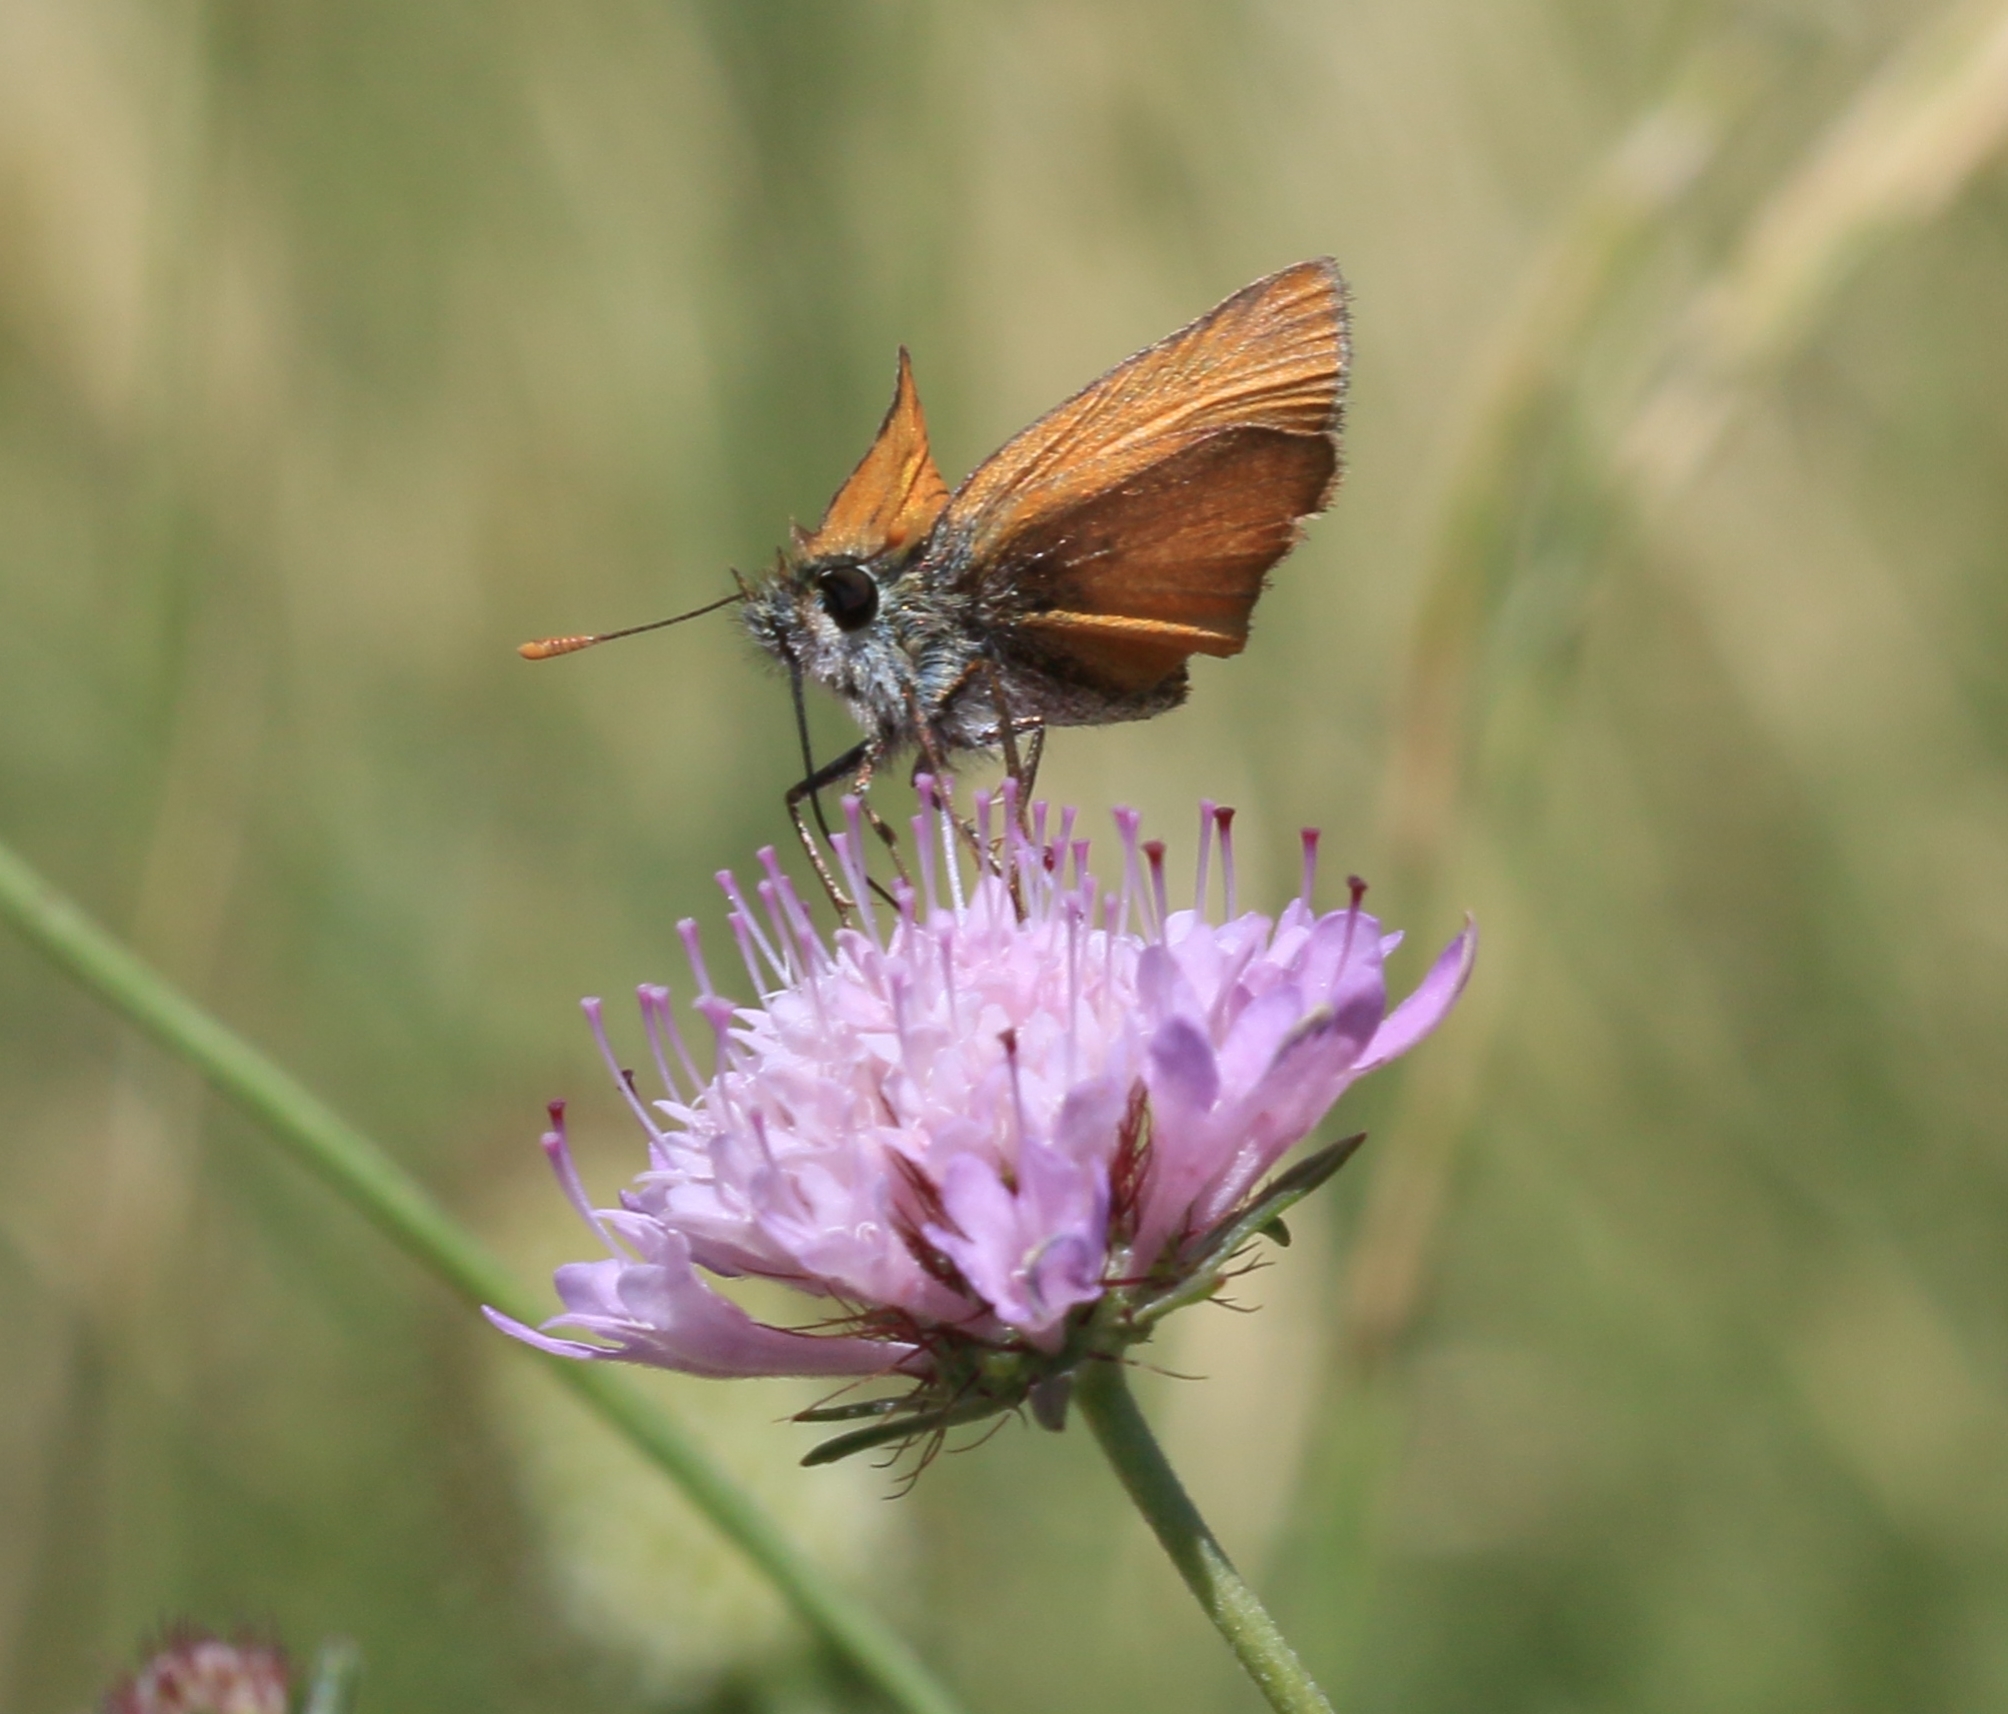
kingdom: Animalia
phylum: Arthropoda
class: Insecta
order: Lepidoptera
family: Hesperiidae
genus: Thymelicus
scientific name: Thymelicus sylvestris
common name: Small skipper
